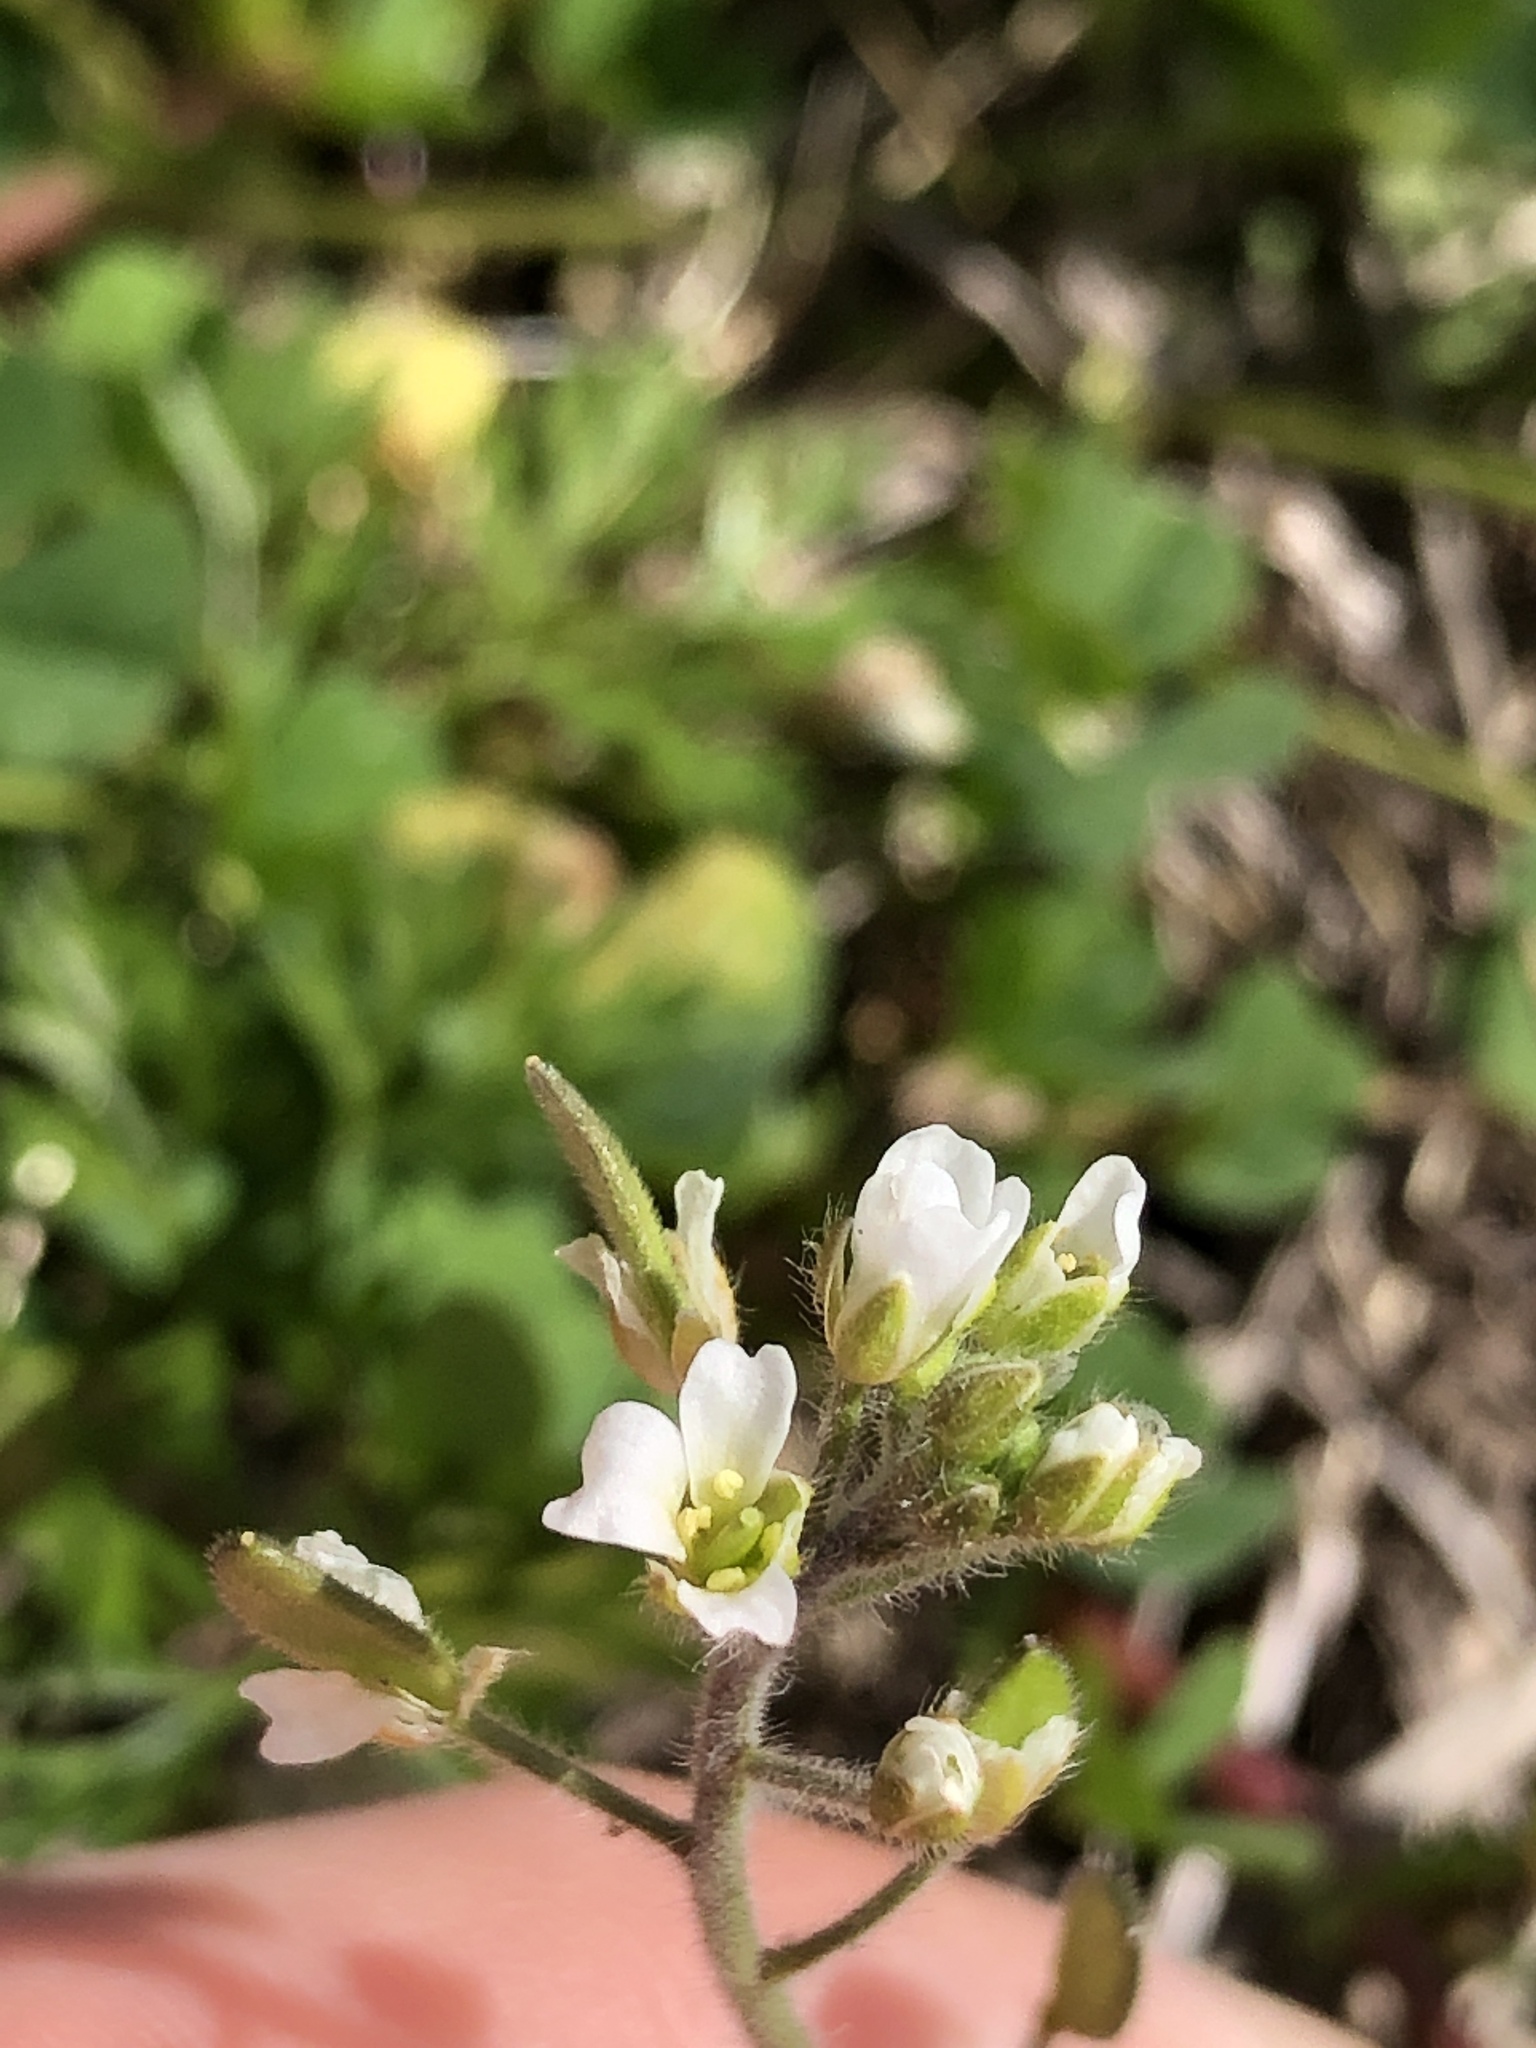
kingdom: Plantae
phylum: Tracheophyta
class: Magnoliopsida
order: Brassicales
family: Brassicaceae
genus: Tomostima
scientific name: Tomostima platycarpa
